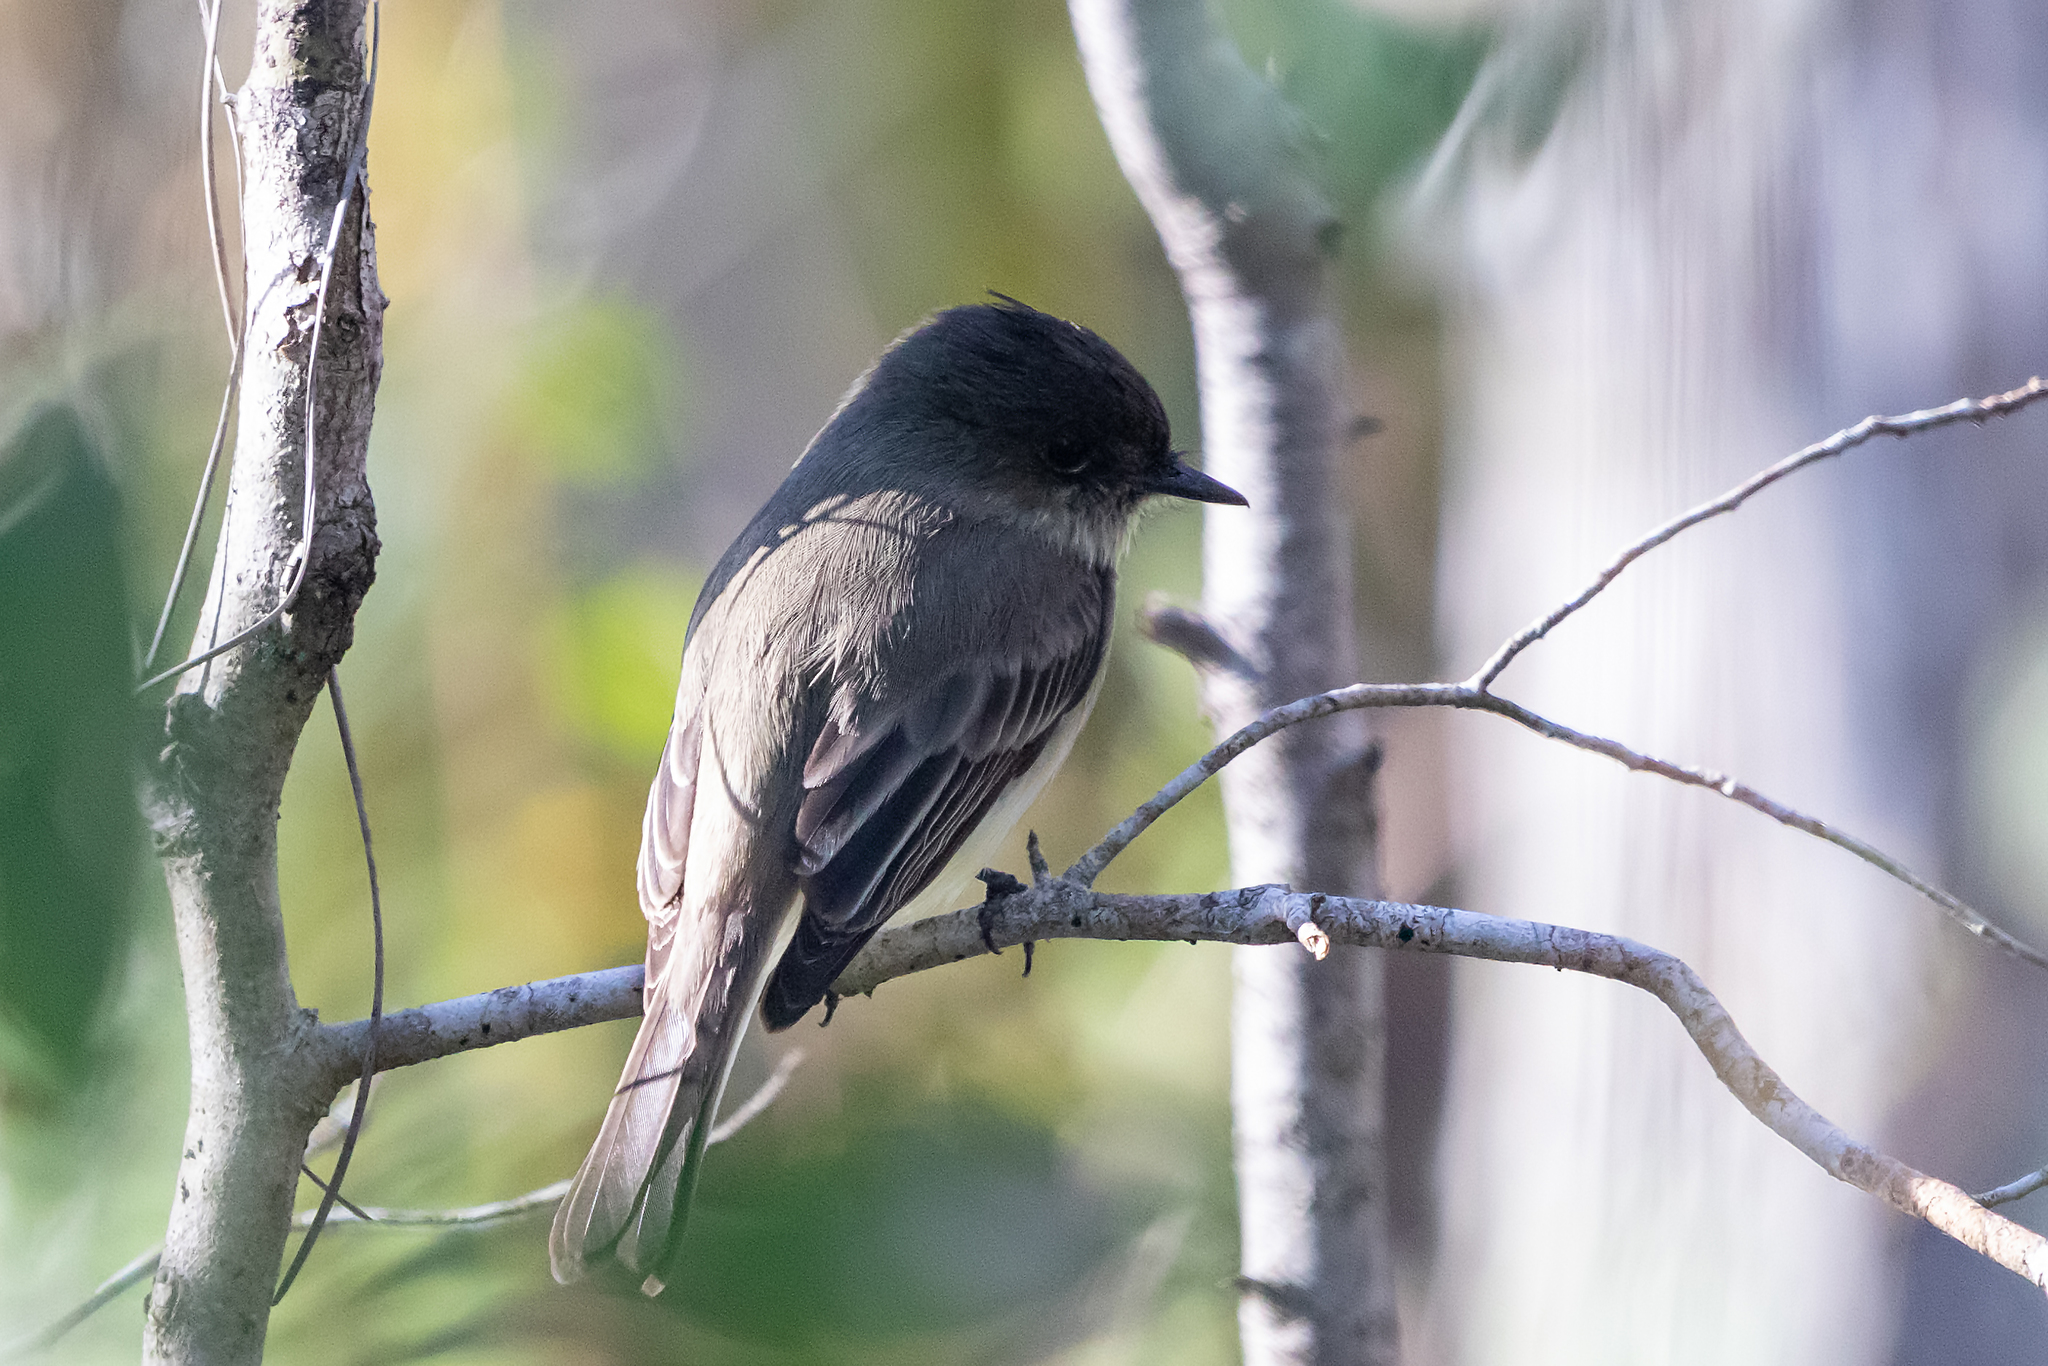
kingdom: Animalia
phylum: Chordata
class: Aves
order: Passeriformes
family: Tyrannidae
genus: Sayornis
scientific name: Sayornis phoebe
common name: Eastern phoebe
